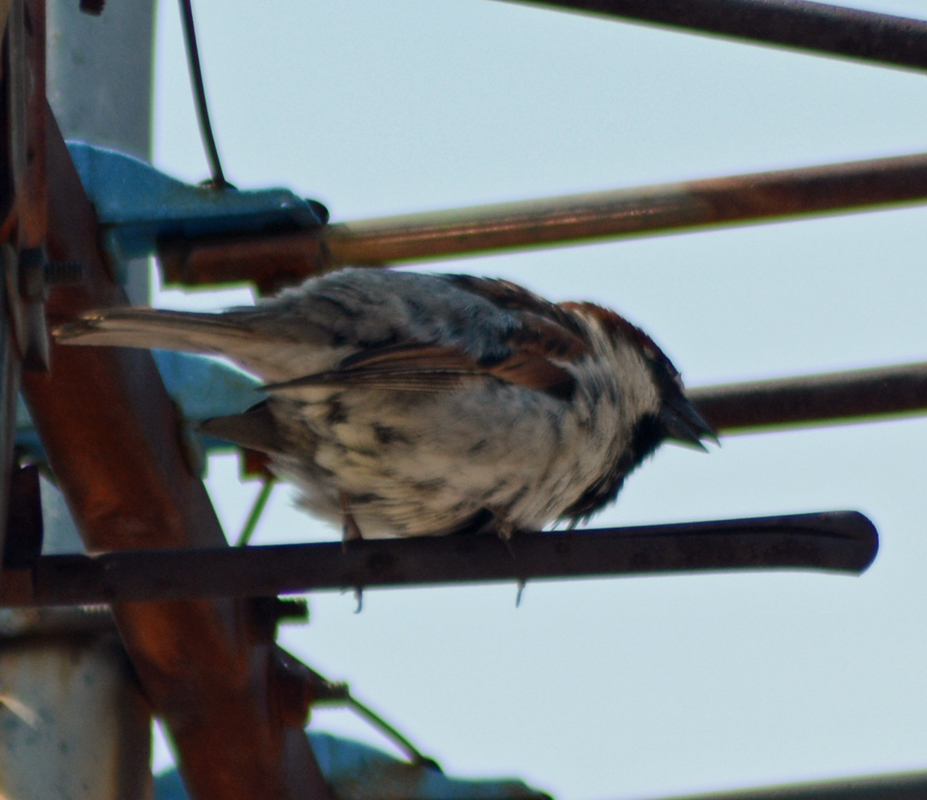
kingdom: Animalia
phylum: Chordata
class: Aves
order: Passeriformes
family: Passeridae
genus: Passer
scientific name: Passer domesticus
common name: House sparrow
